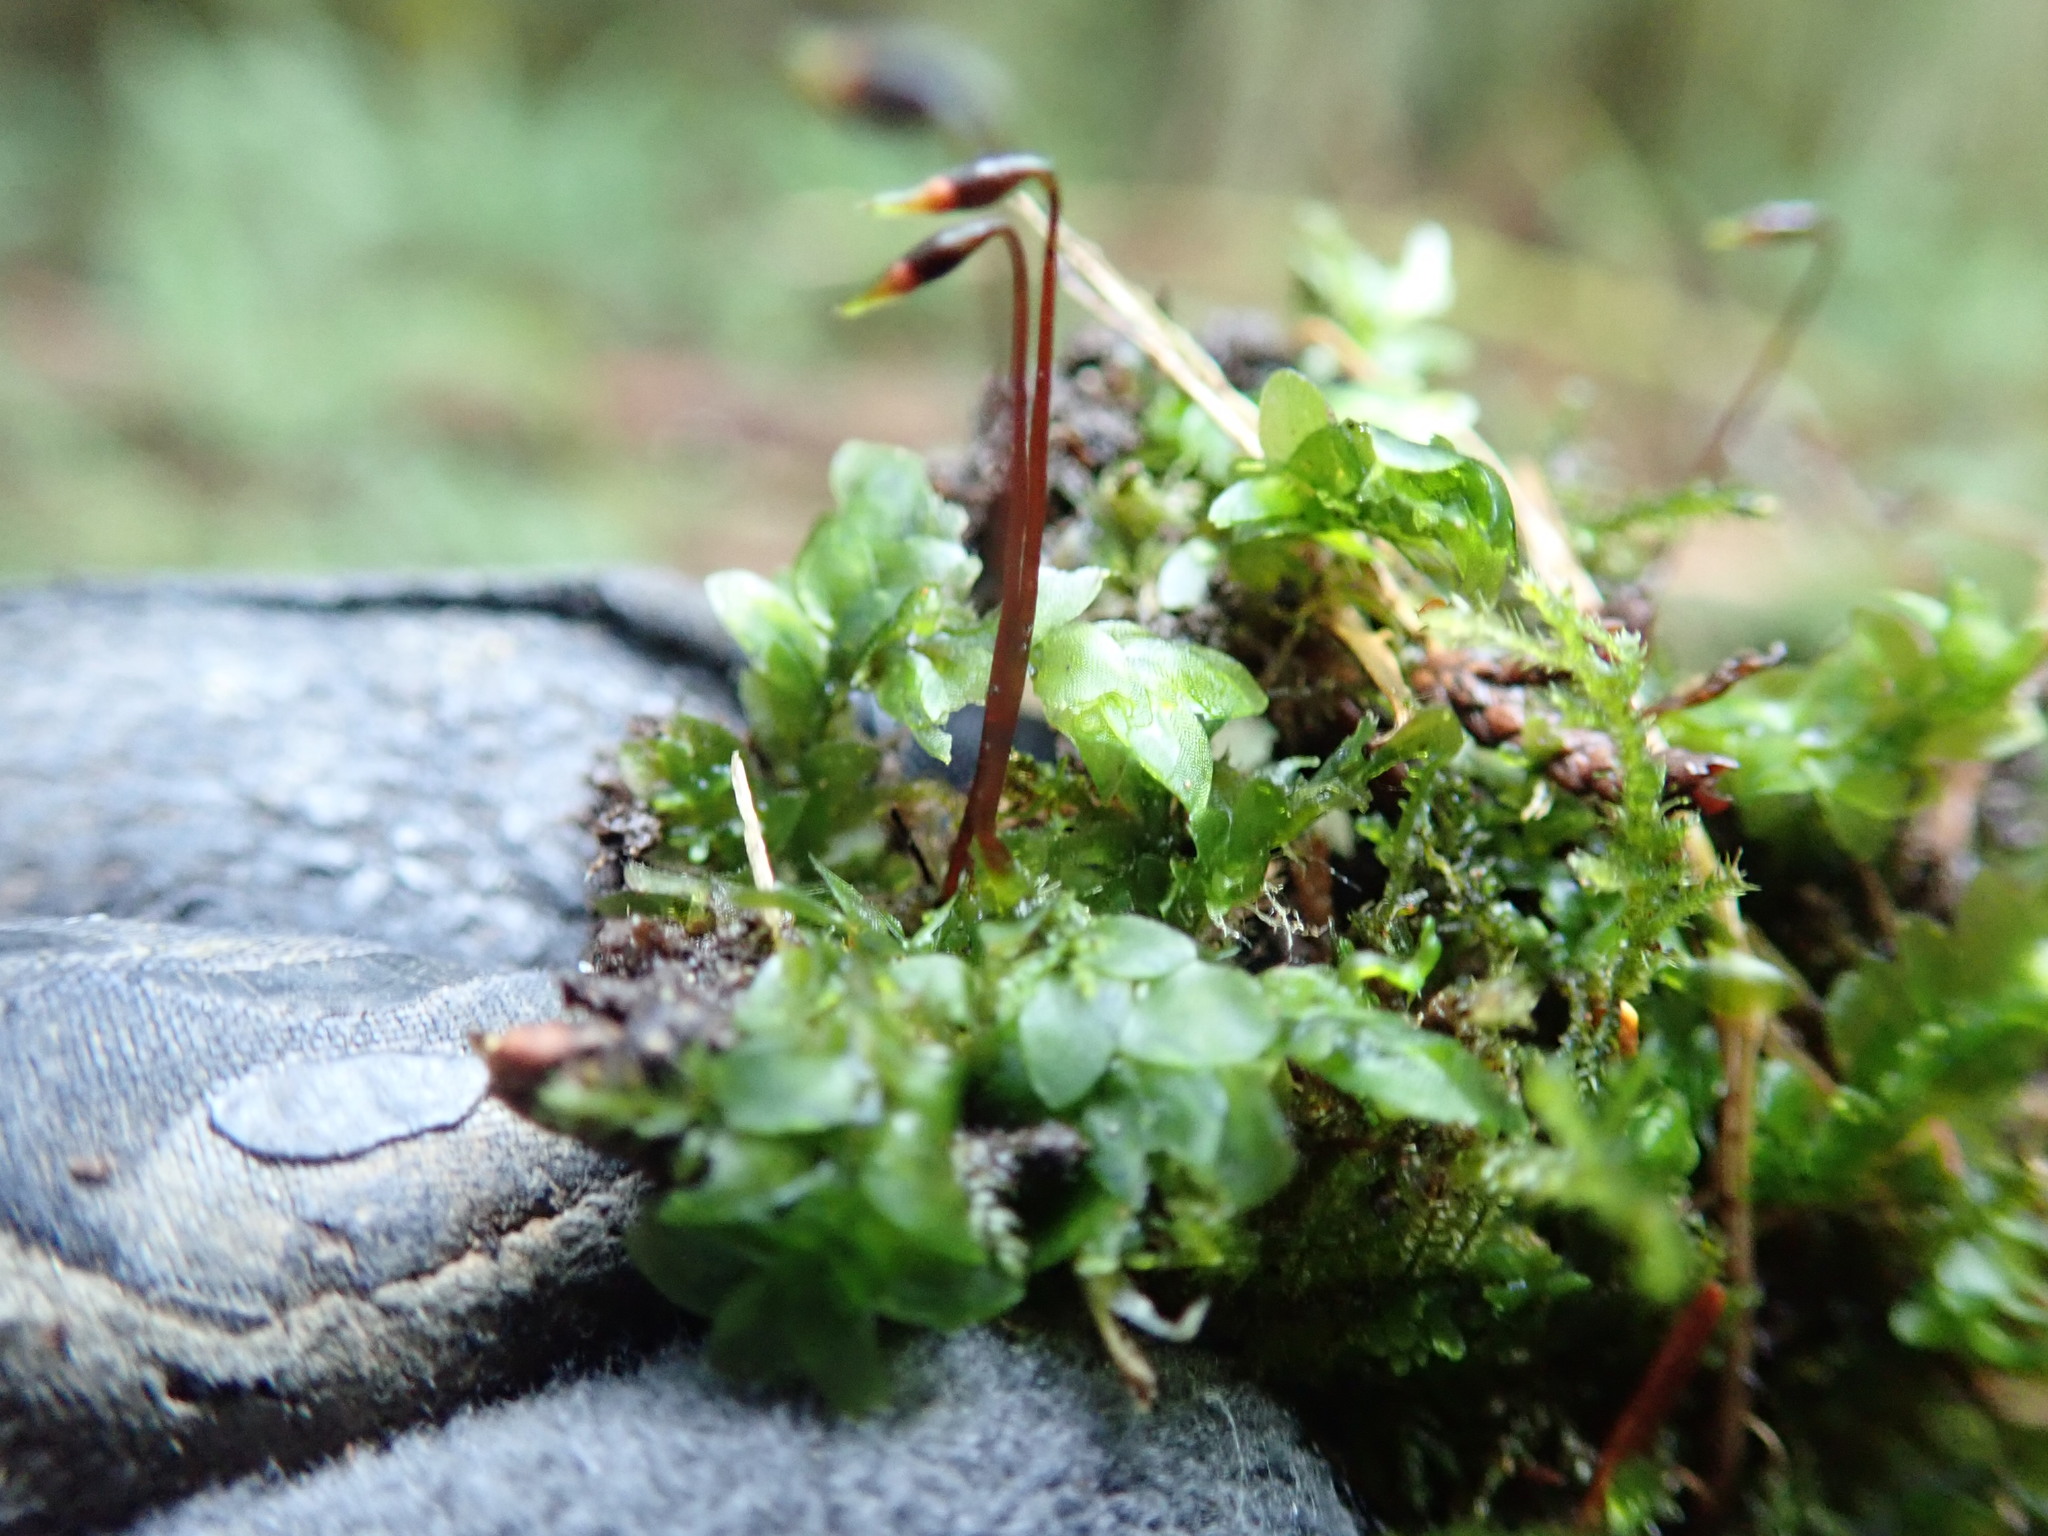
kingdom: Plantae
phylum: Bryophyta
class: Bryopsida
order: Hookeriales
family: Hookeriaceae
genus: Hookeria
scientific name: Hookeria lucens
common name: Shining hookeria
